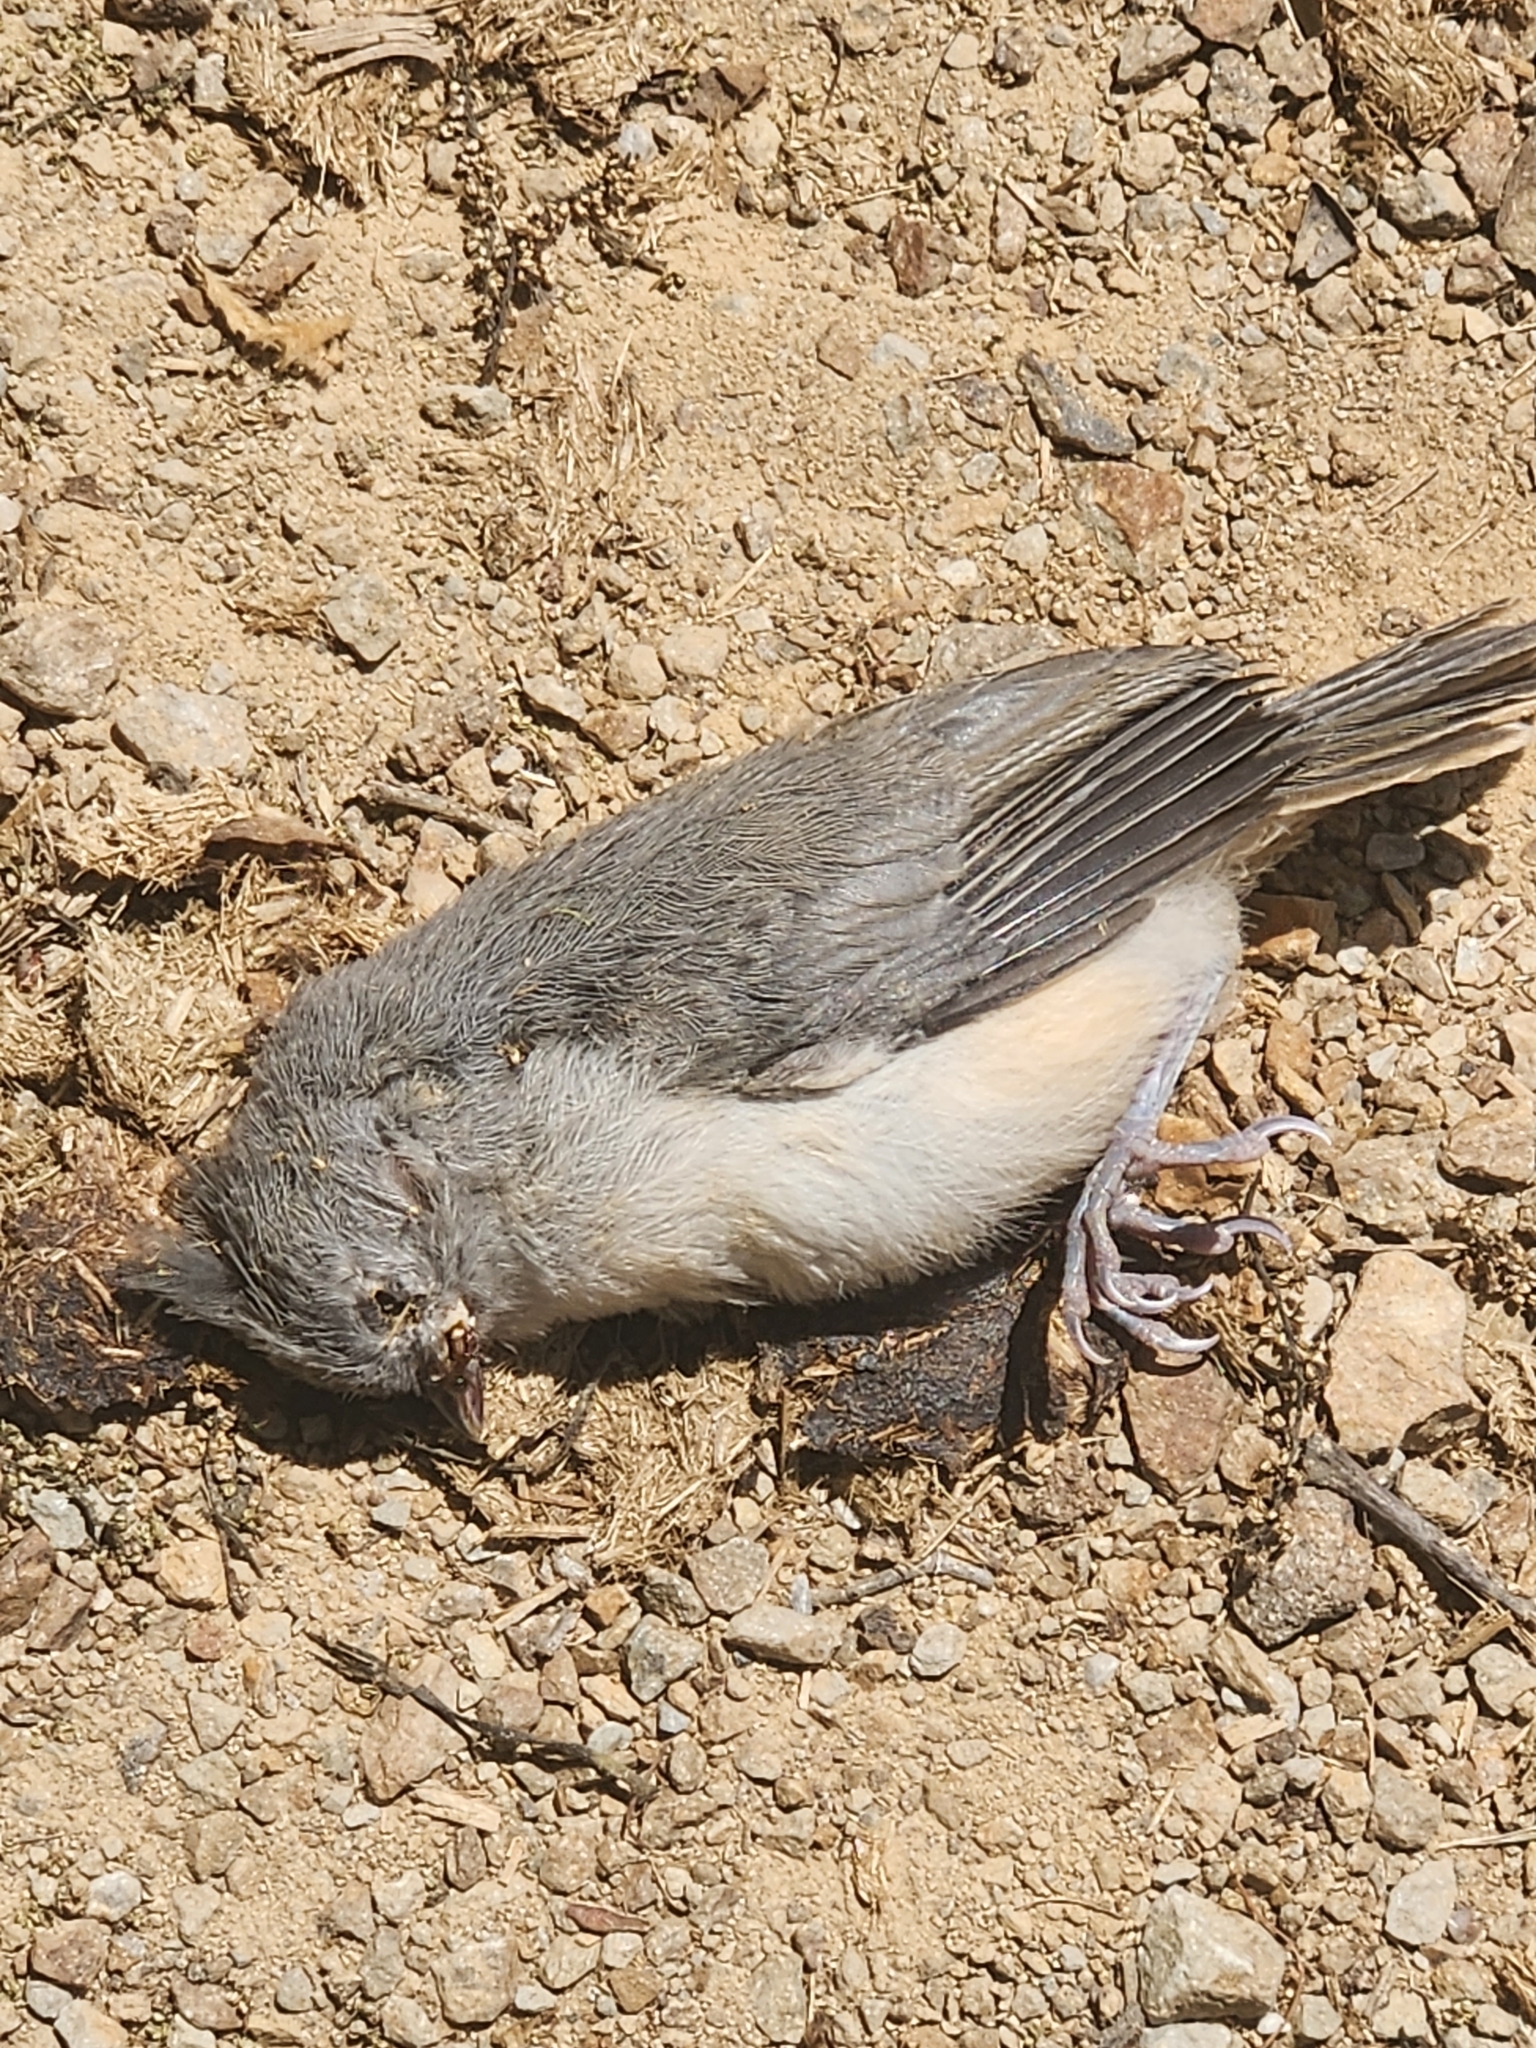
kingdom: Animalia
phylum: Chordata
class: Aves
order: Passeriformes
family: Paridae
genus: Baeolophus
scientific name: Baeolophus bicolor
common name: Tufted titmouse
